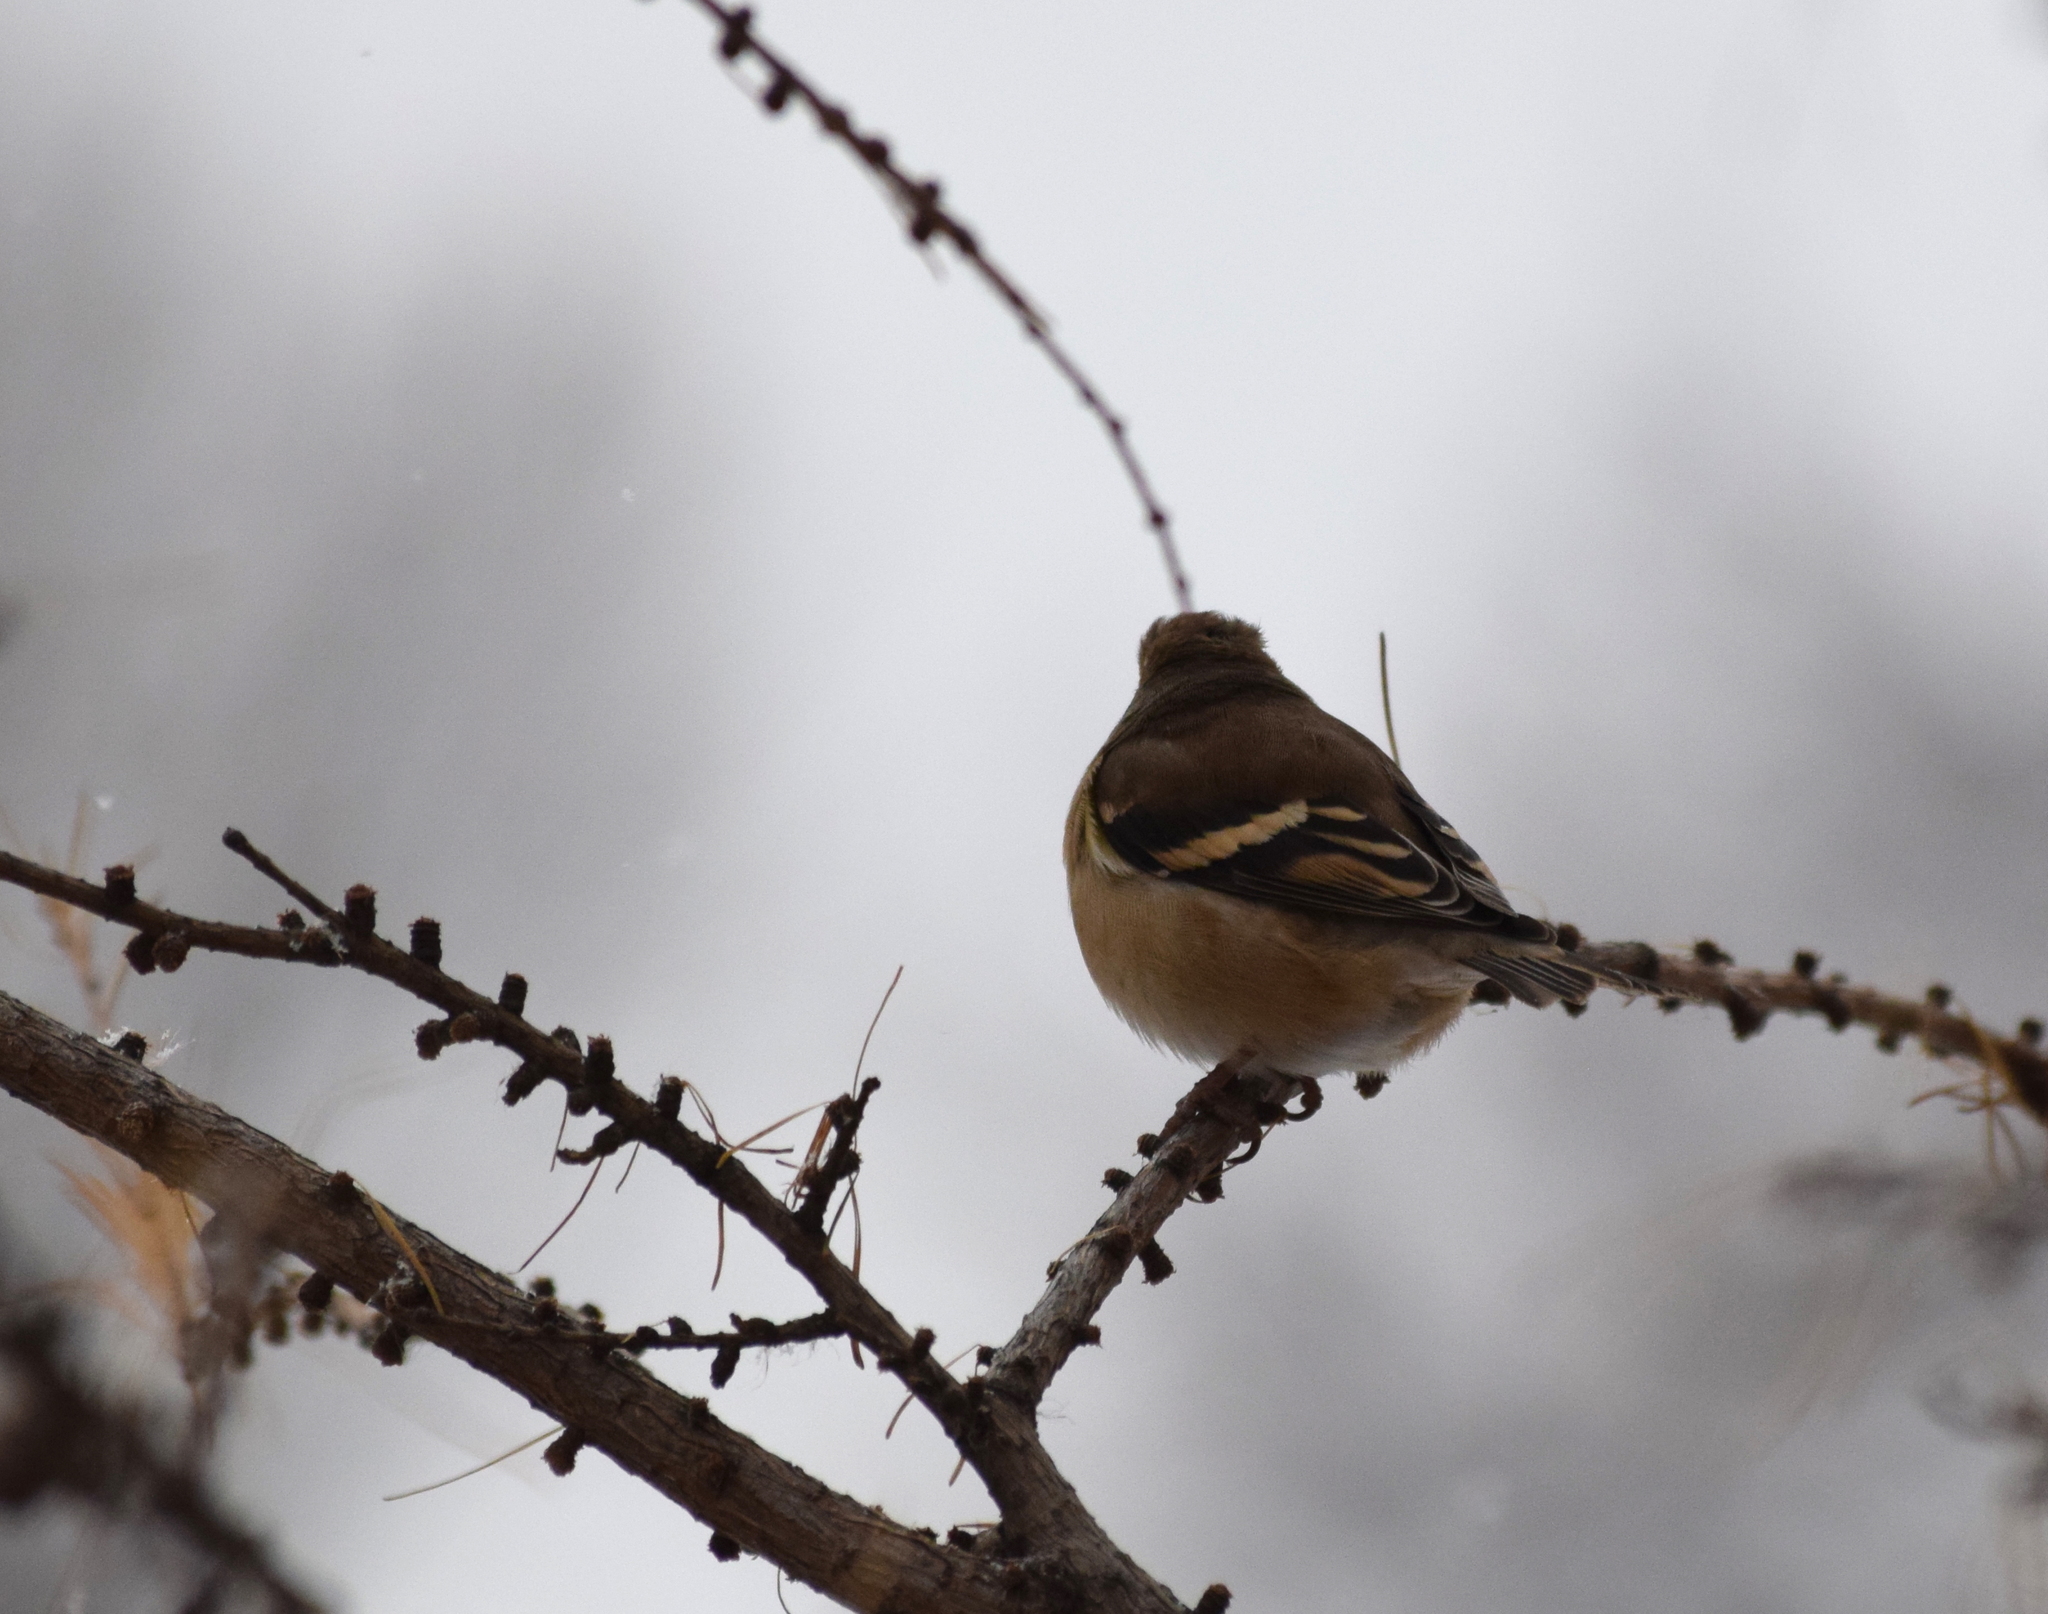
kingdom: Animalia
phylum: Chordata
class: Aves
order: Passeriformes
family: Fringillidae
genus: Spinus
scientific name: Spinus tristis
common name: American goldfinch
